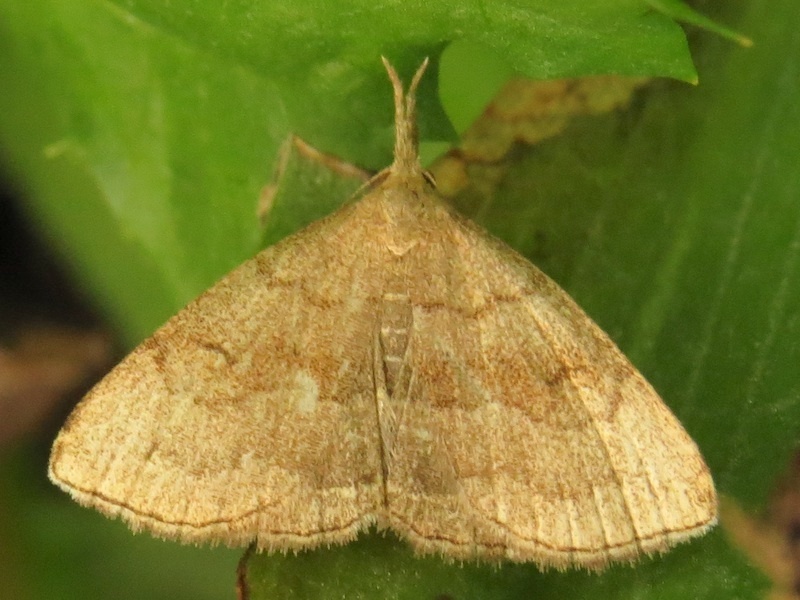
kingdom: Animalia
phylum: Arthropoda
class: Insecta
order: Lepidoptera
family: Erebidae
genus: Phalaenostola
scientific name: Phalaenostola metonalis
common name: Pale phalaenostola moth
